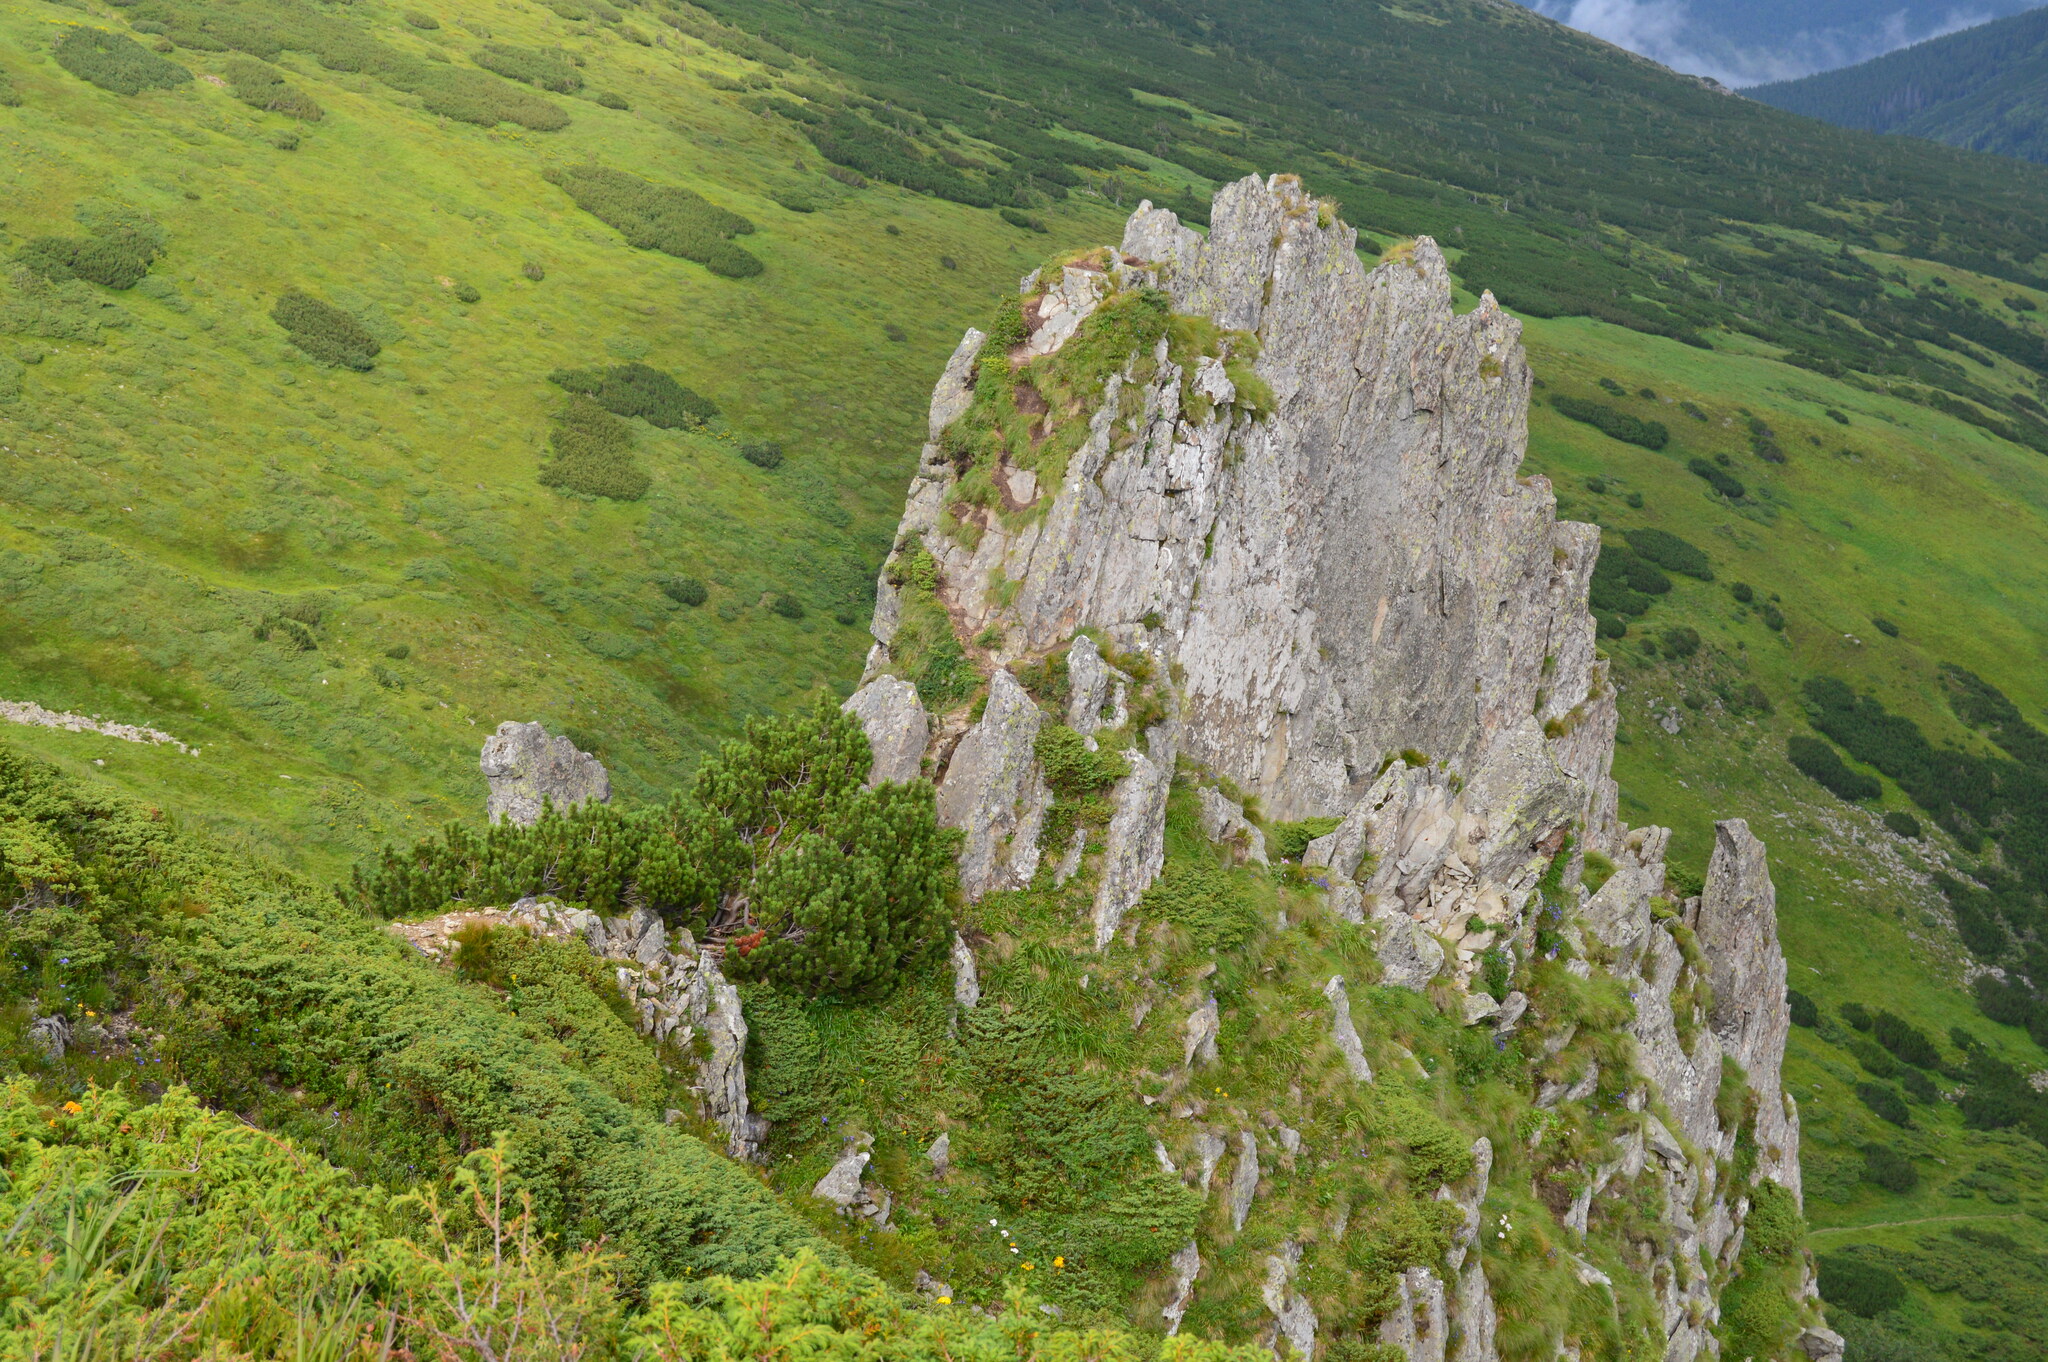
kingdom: Plantae
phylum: Tracheophyta
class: Pinopsida
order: Pinales
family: Pinaceae
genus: Pinus
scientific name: Pinus mugo
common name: Mugo pine
